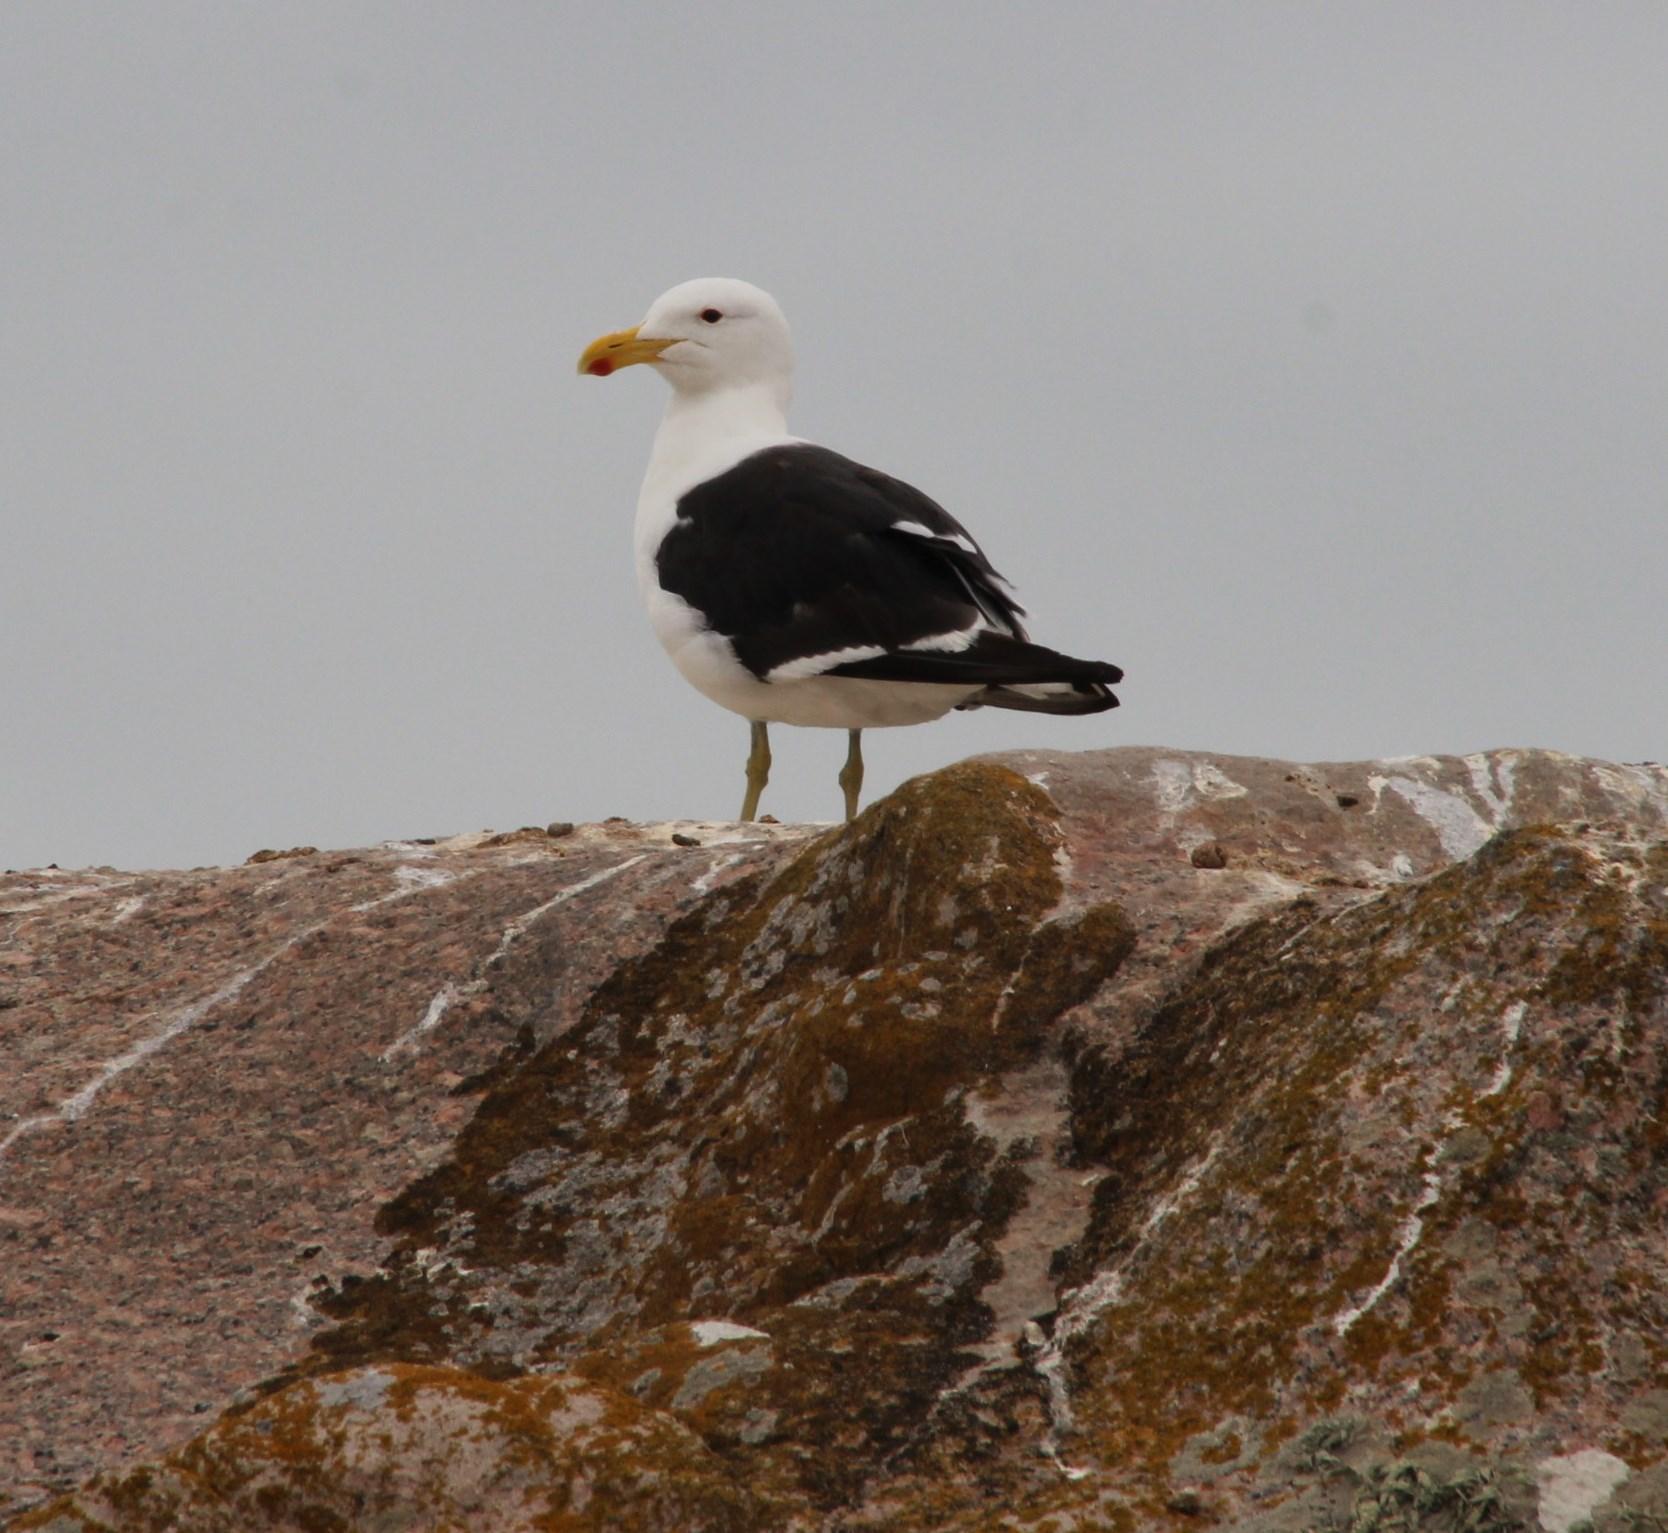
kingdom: Animalia
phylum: Chordata
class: Aves
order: Charadriiformes
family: Laridae
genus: Larus
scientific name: Larus dominicanus
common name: Kelp gull
